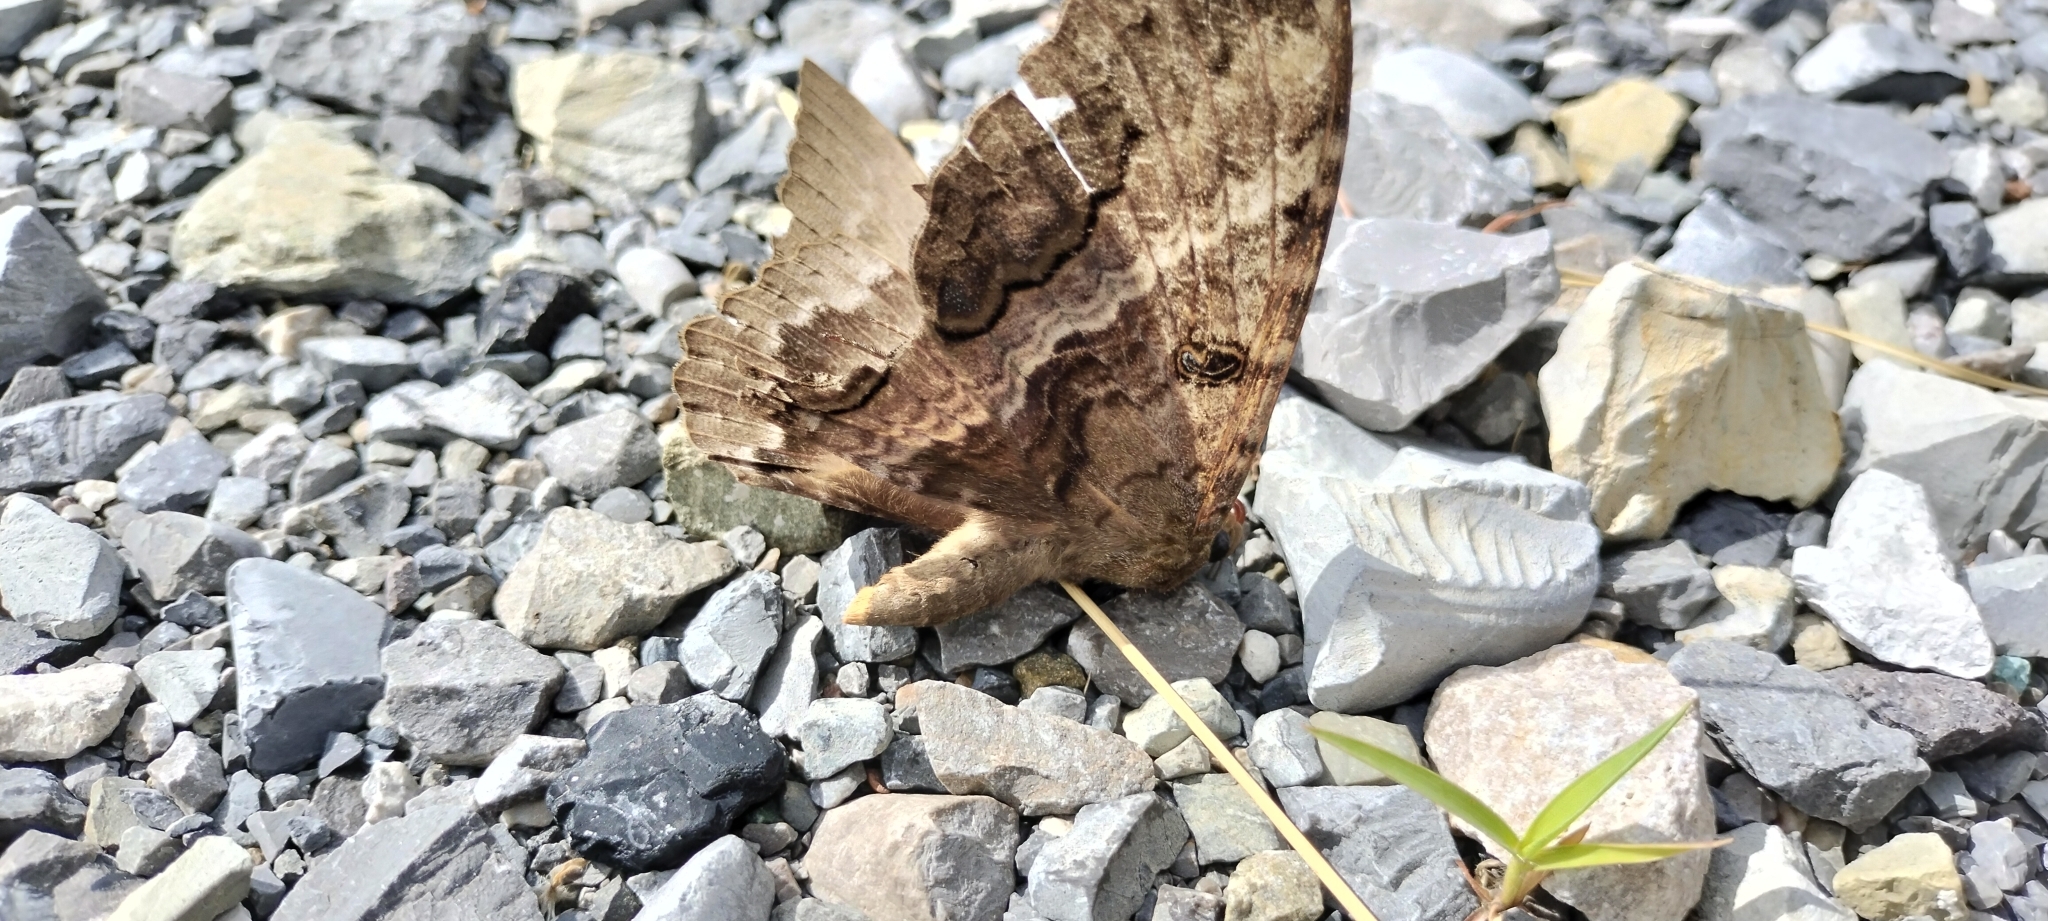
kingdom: Animalia
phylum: Arthropoda
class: Insecta
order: Lepidoptera
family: Erebidae
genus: Ascalapha
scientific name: Ascalapha odorata
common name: Black witch
